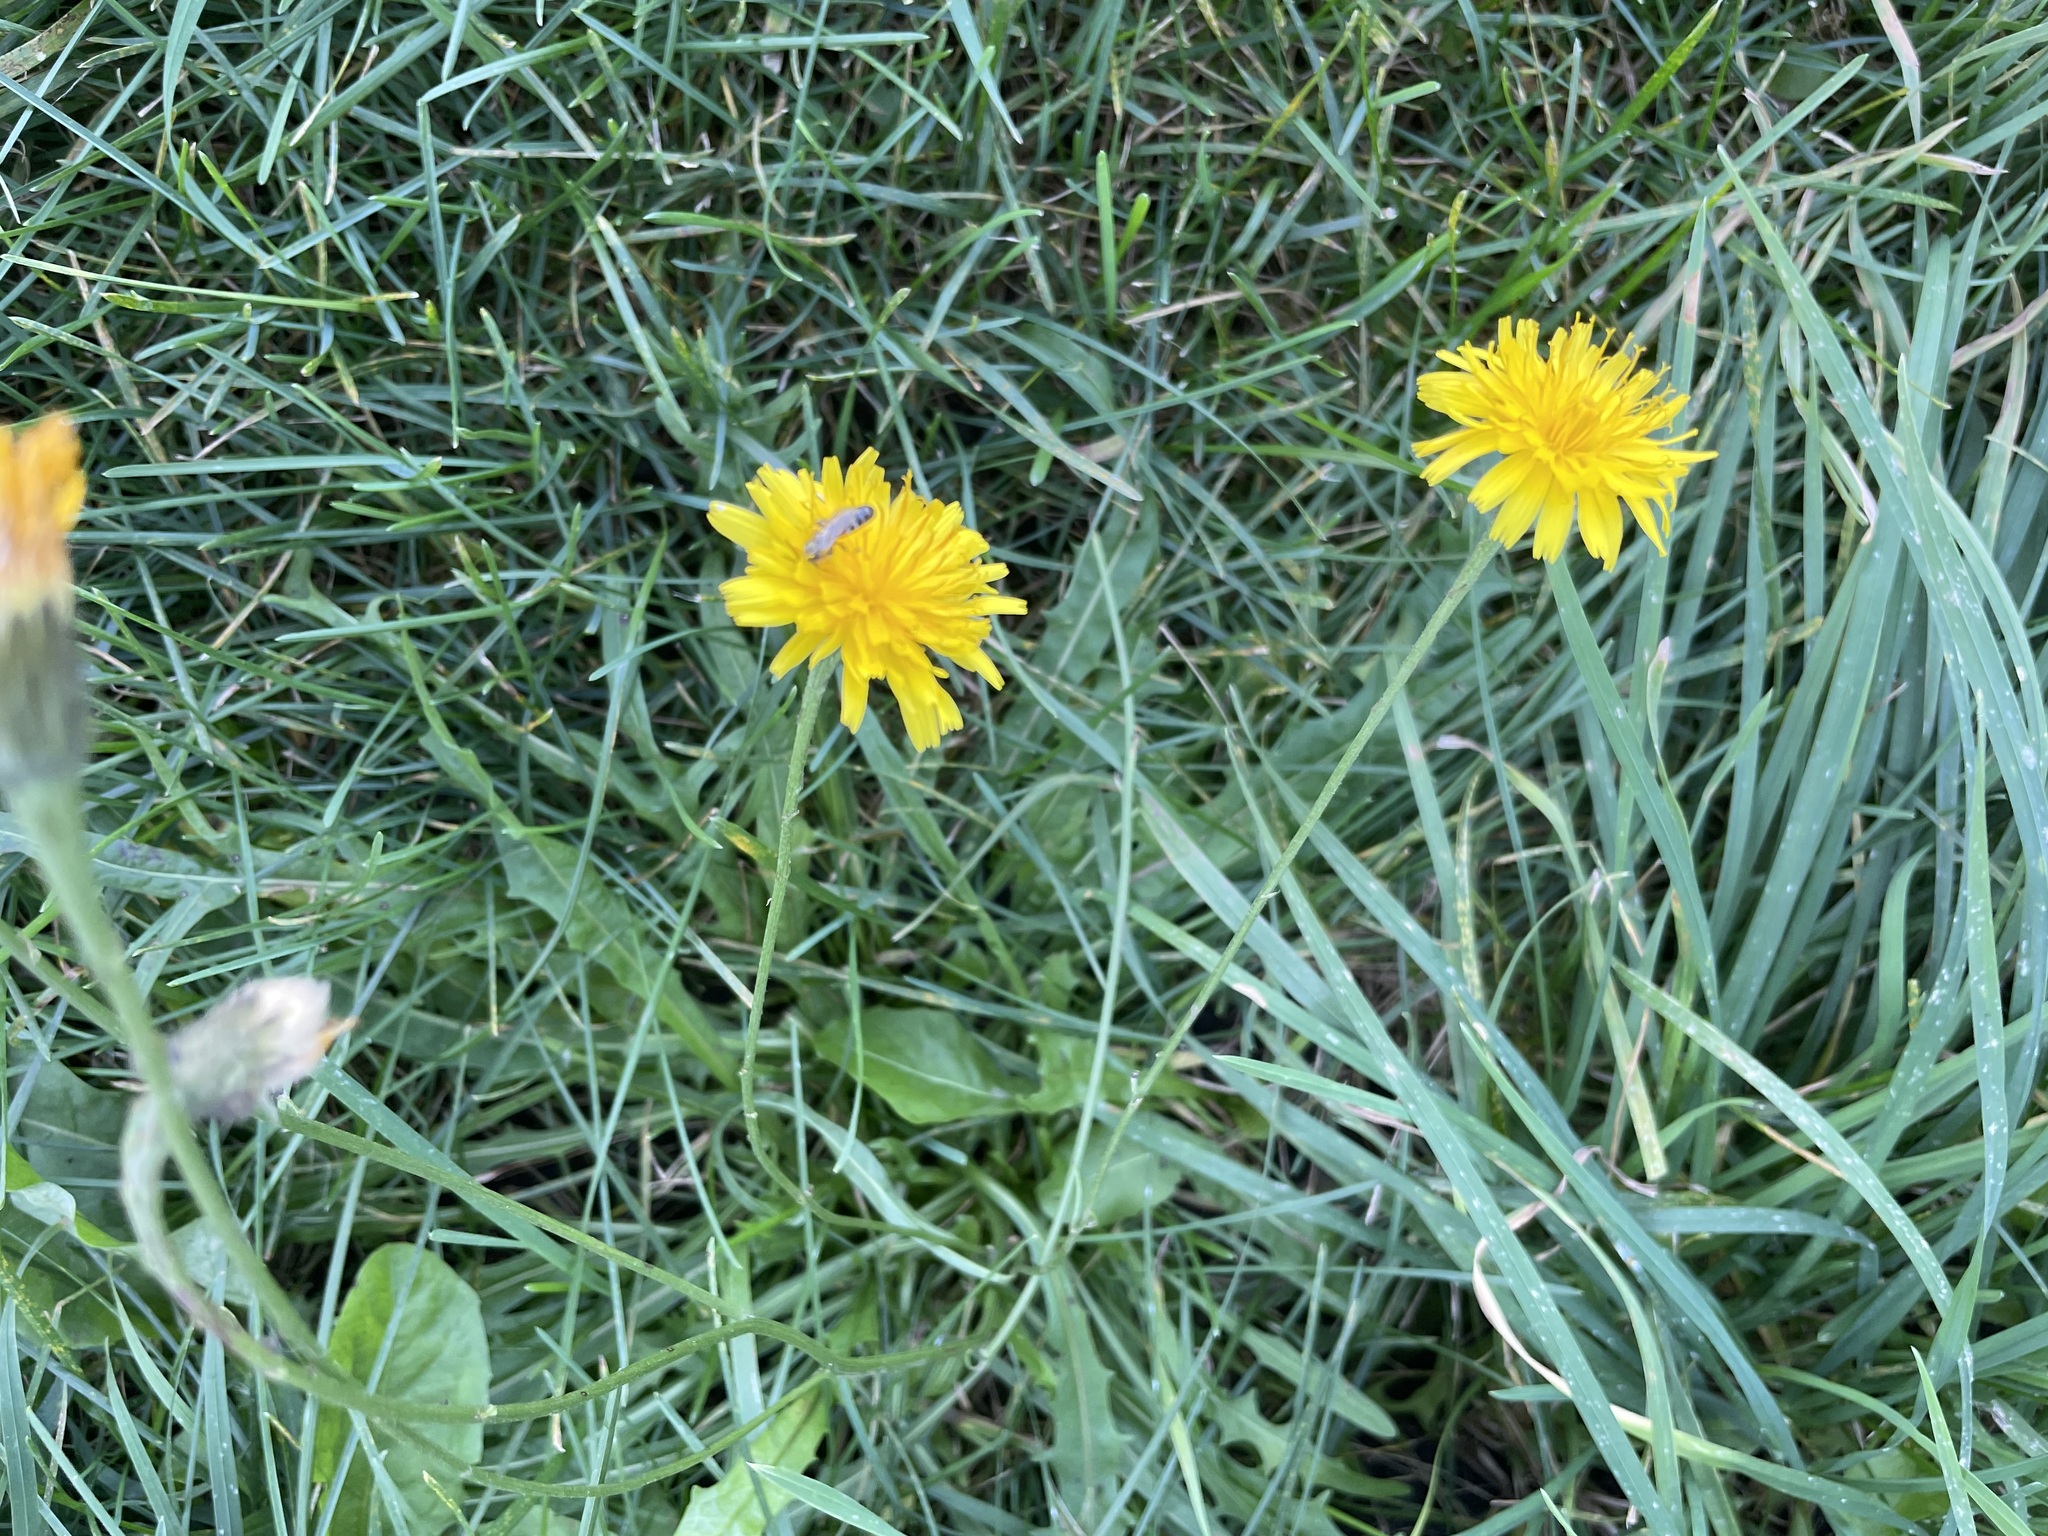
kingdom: Plantae
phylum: Tracheophyta
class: Magnoliopsida
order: Asterales
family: Asteraceae
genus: Scorzoneroides
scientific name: Scorzoneroides autumnalis
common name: Autumn hawkbit
